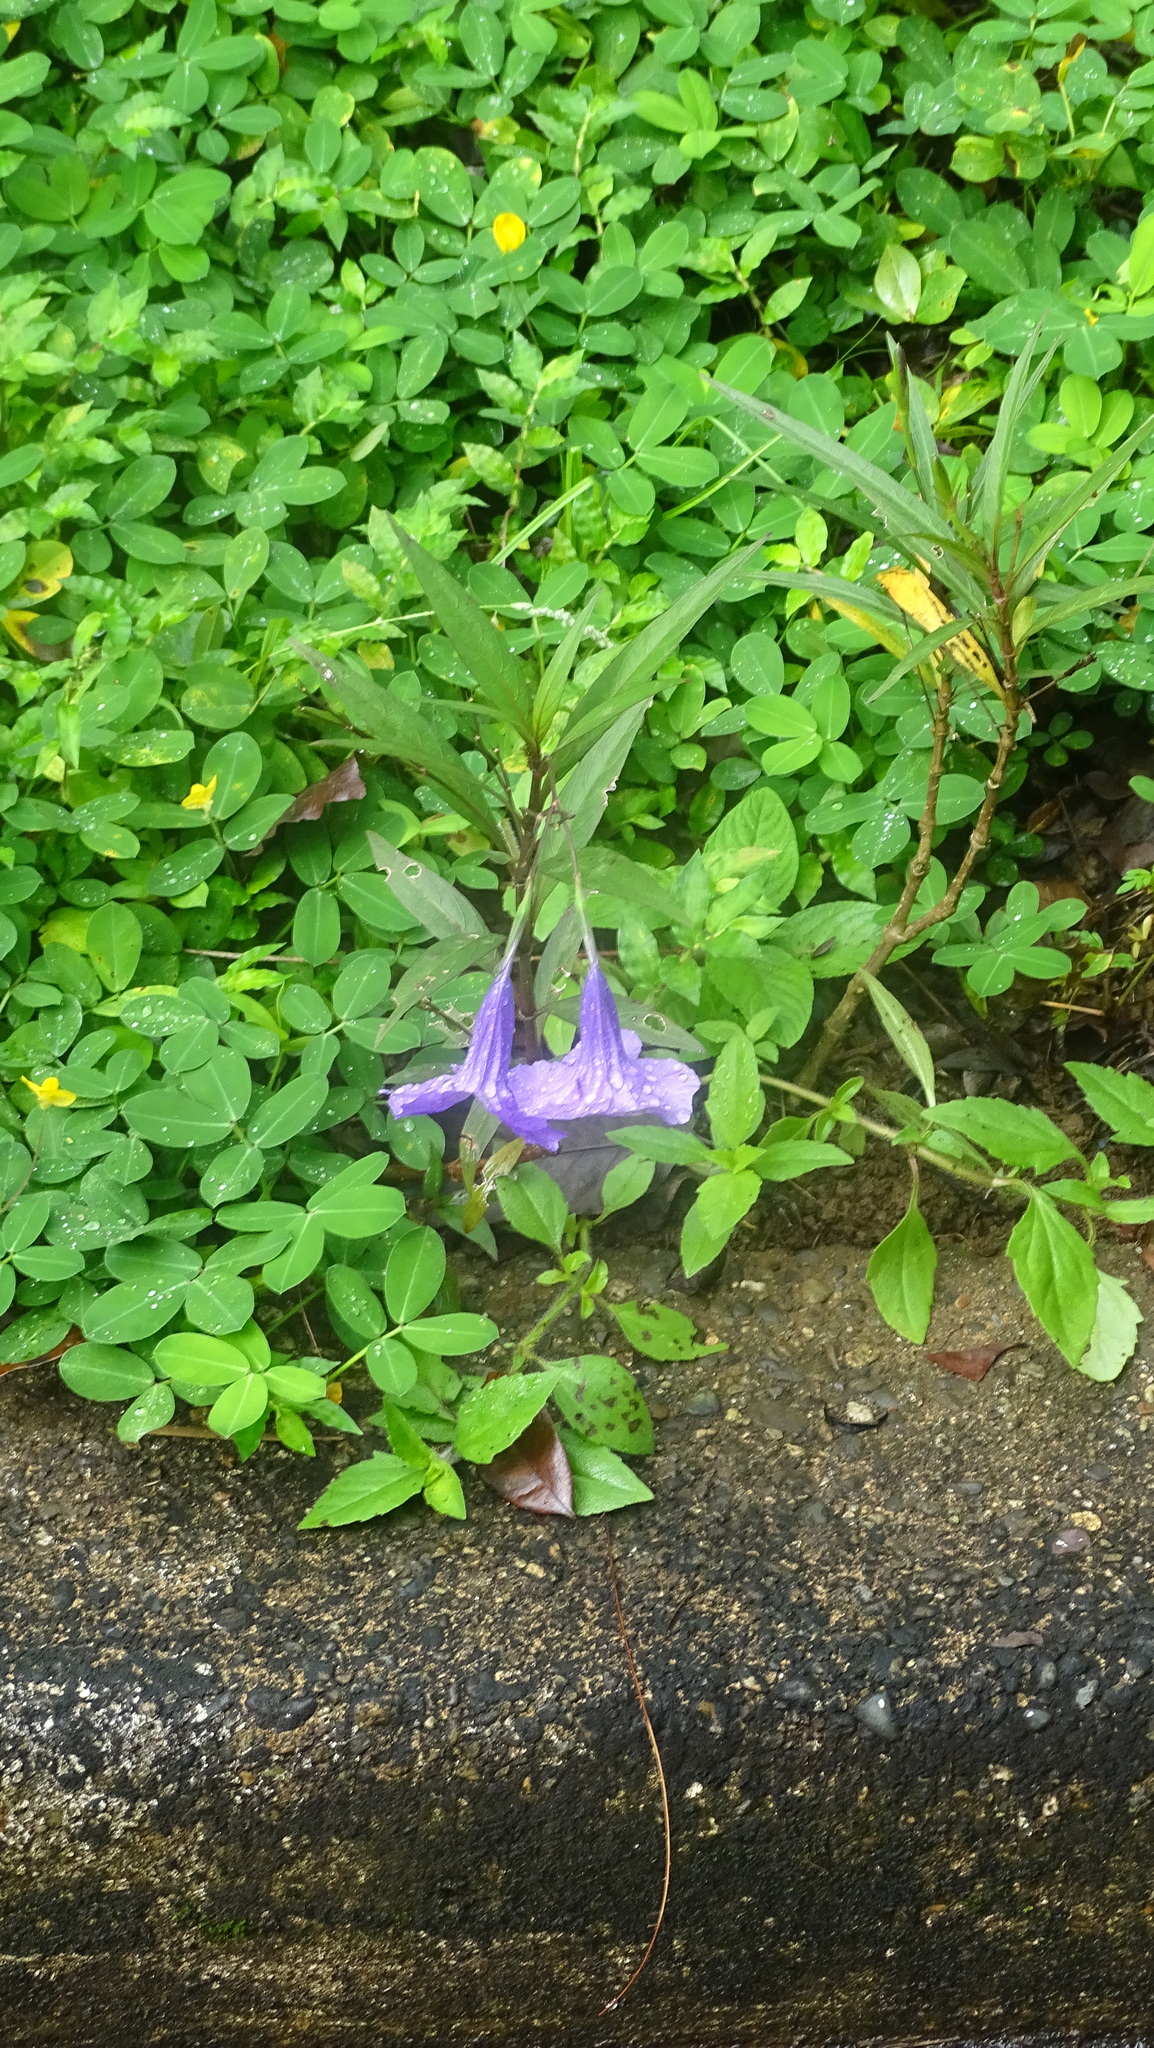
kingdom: Plantae
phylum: Tracheophyta
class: Magnoliopsida
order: Lamiales
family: Acanthaceae
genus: Ruellia
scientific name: Ruellia simplex
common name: Softseed wild petunia
